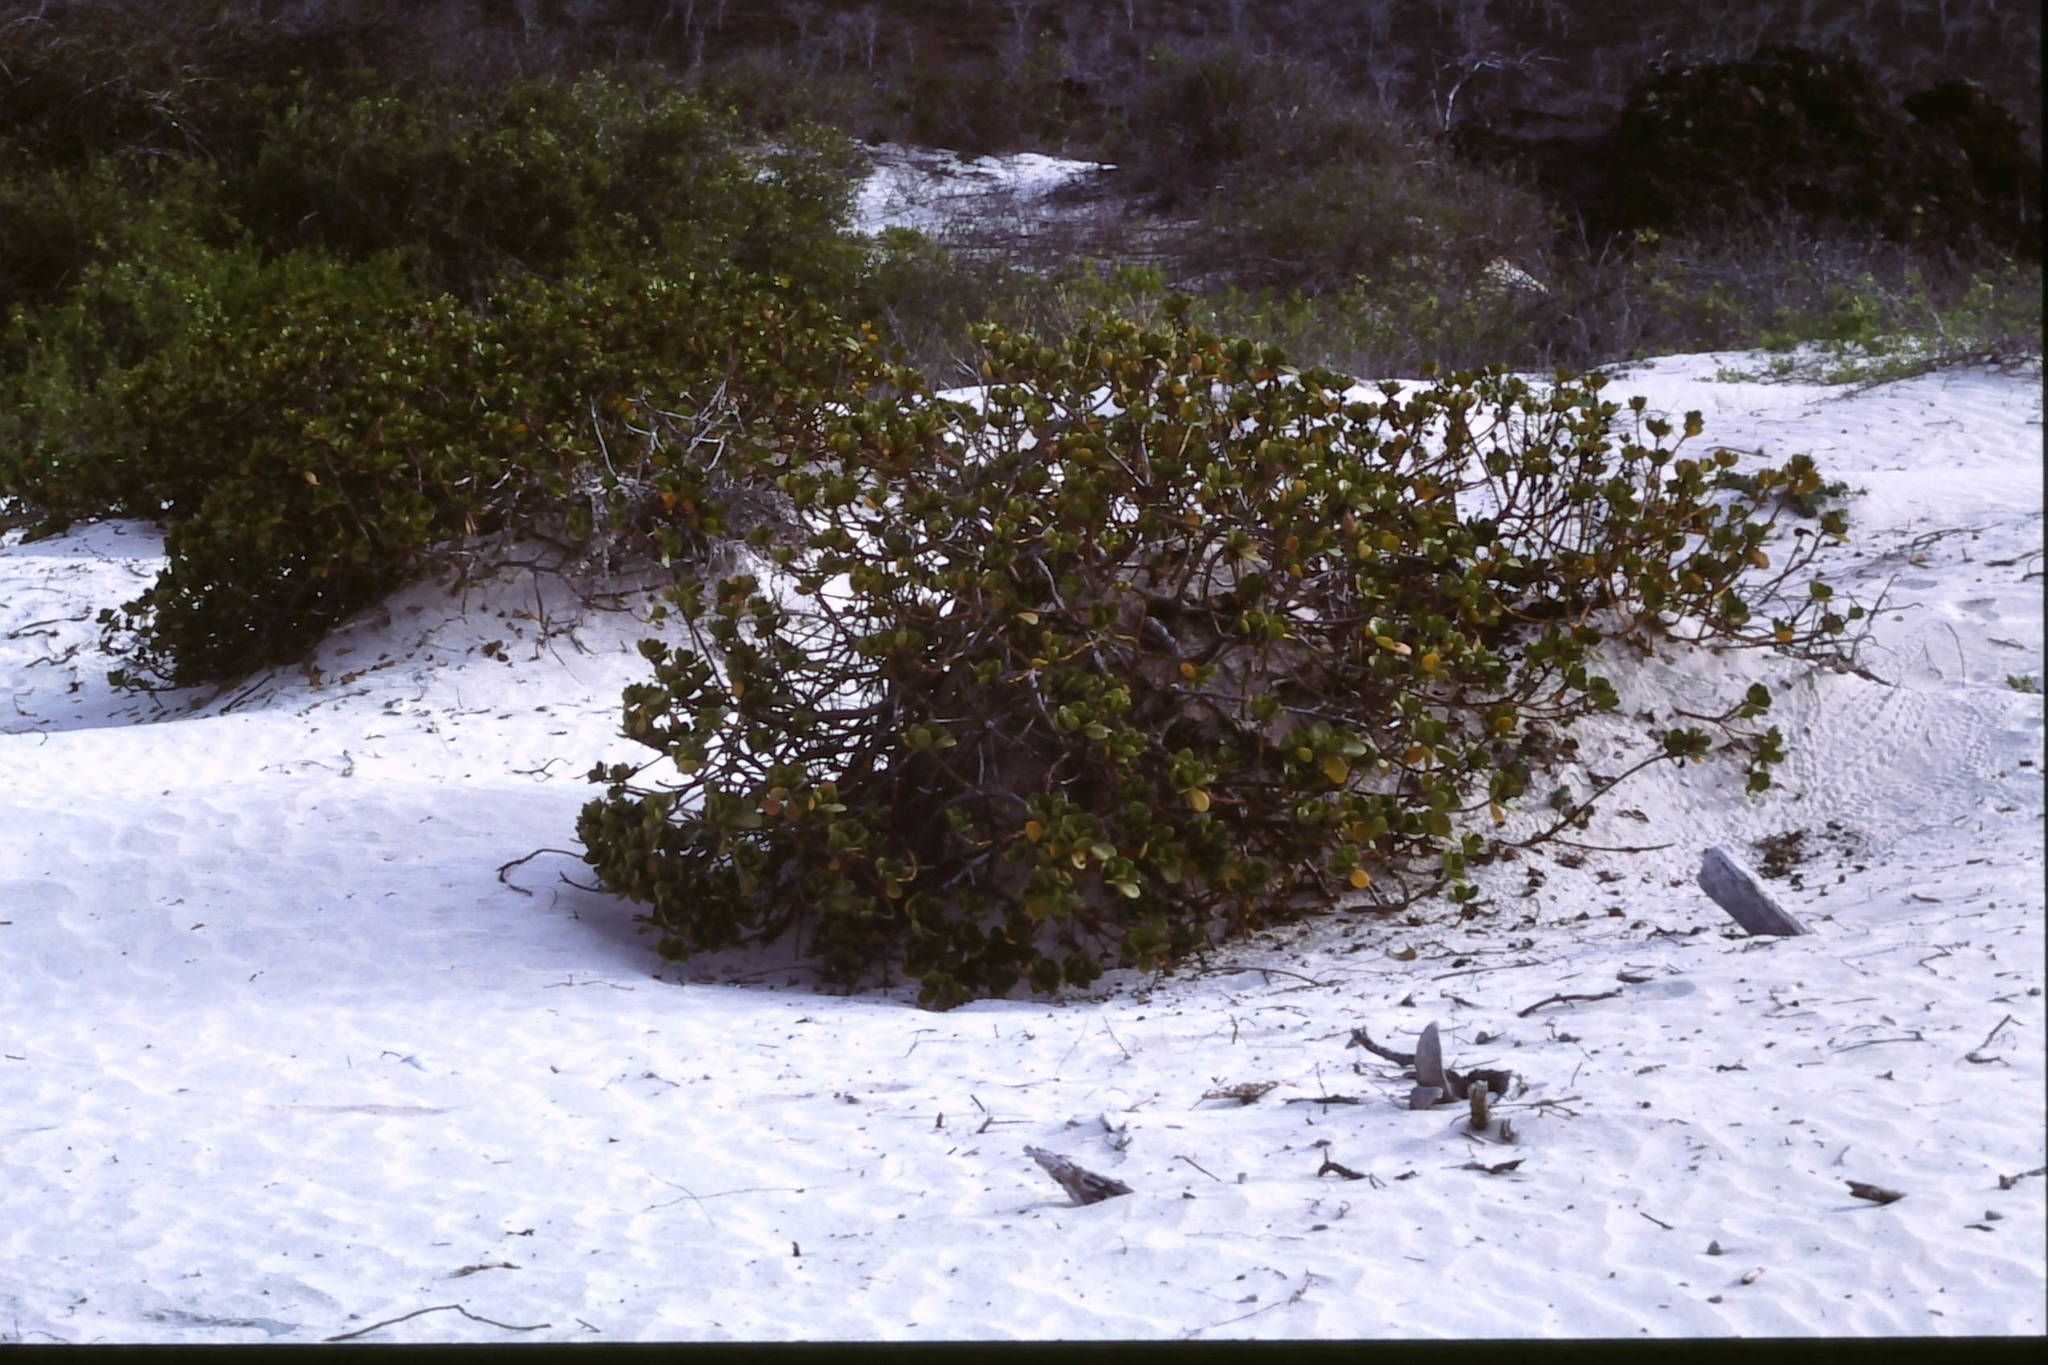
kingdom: Plantae
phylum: Tracheophyta
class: Magnoliopsida
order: Malpighiales
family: Rhizophoraceae
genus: Rhizophora
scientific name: Rhizophora mangle
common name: Red mangrove
